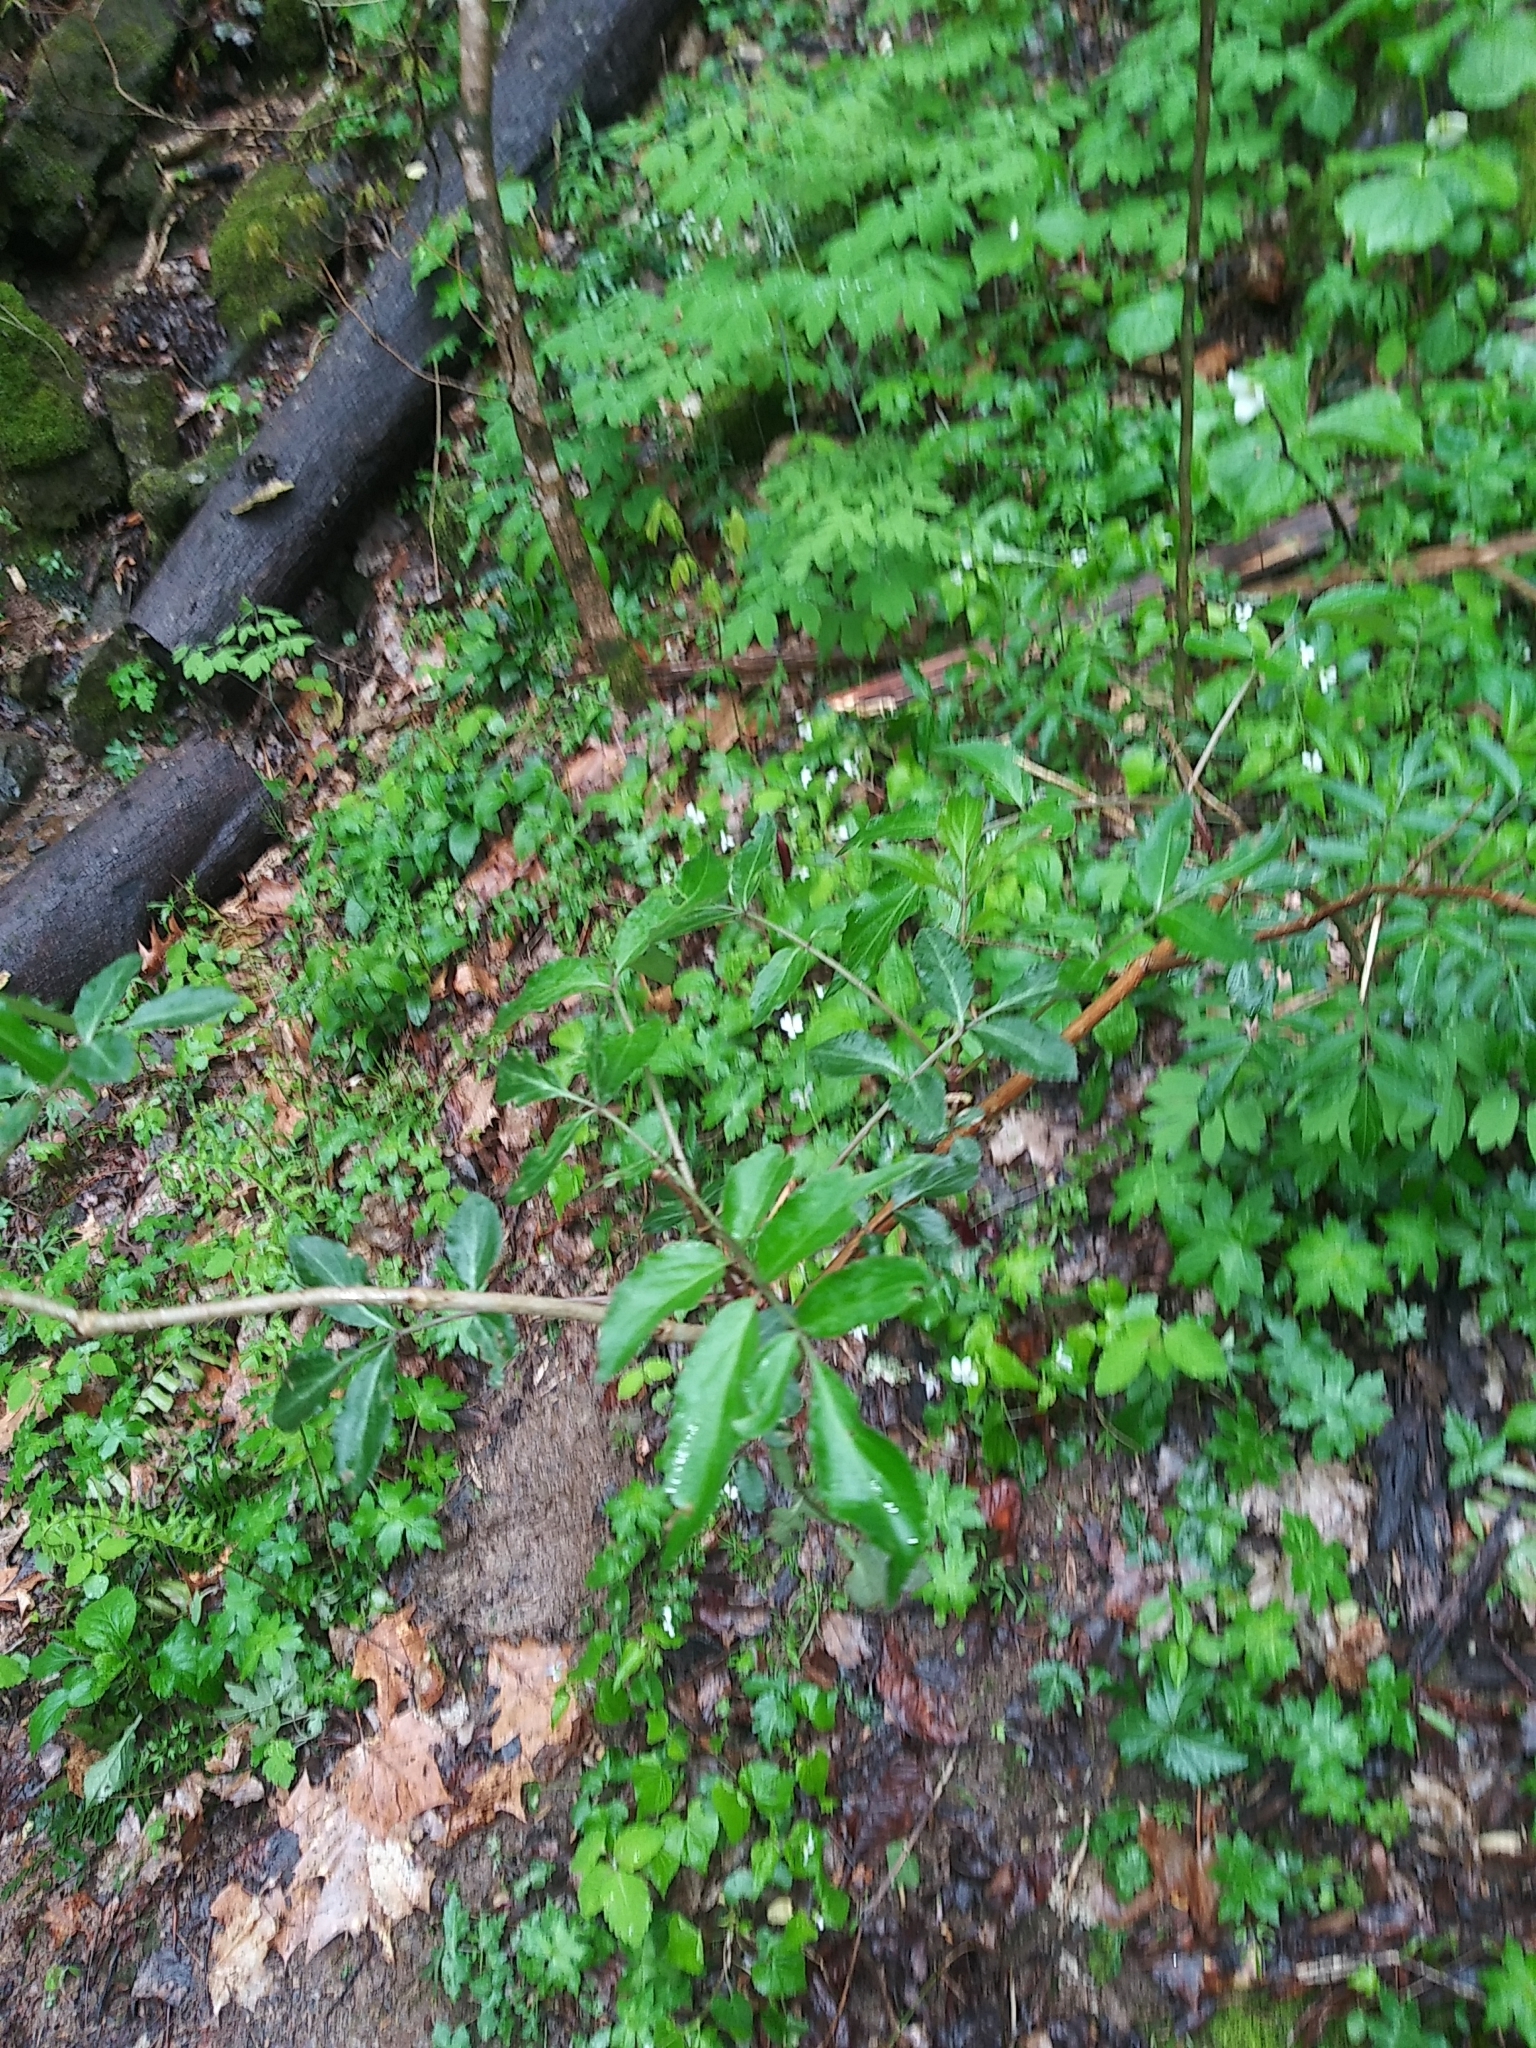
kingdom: Plantae
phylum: Tracheophyta
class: Magnoliopsida
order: Dipsacales
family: Viburnaceae
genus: Sambucus
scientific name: Sambucus canadensis
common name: American elder
